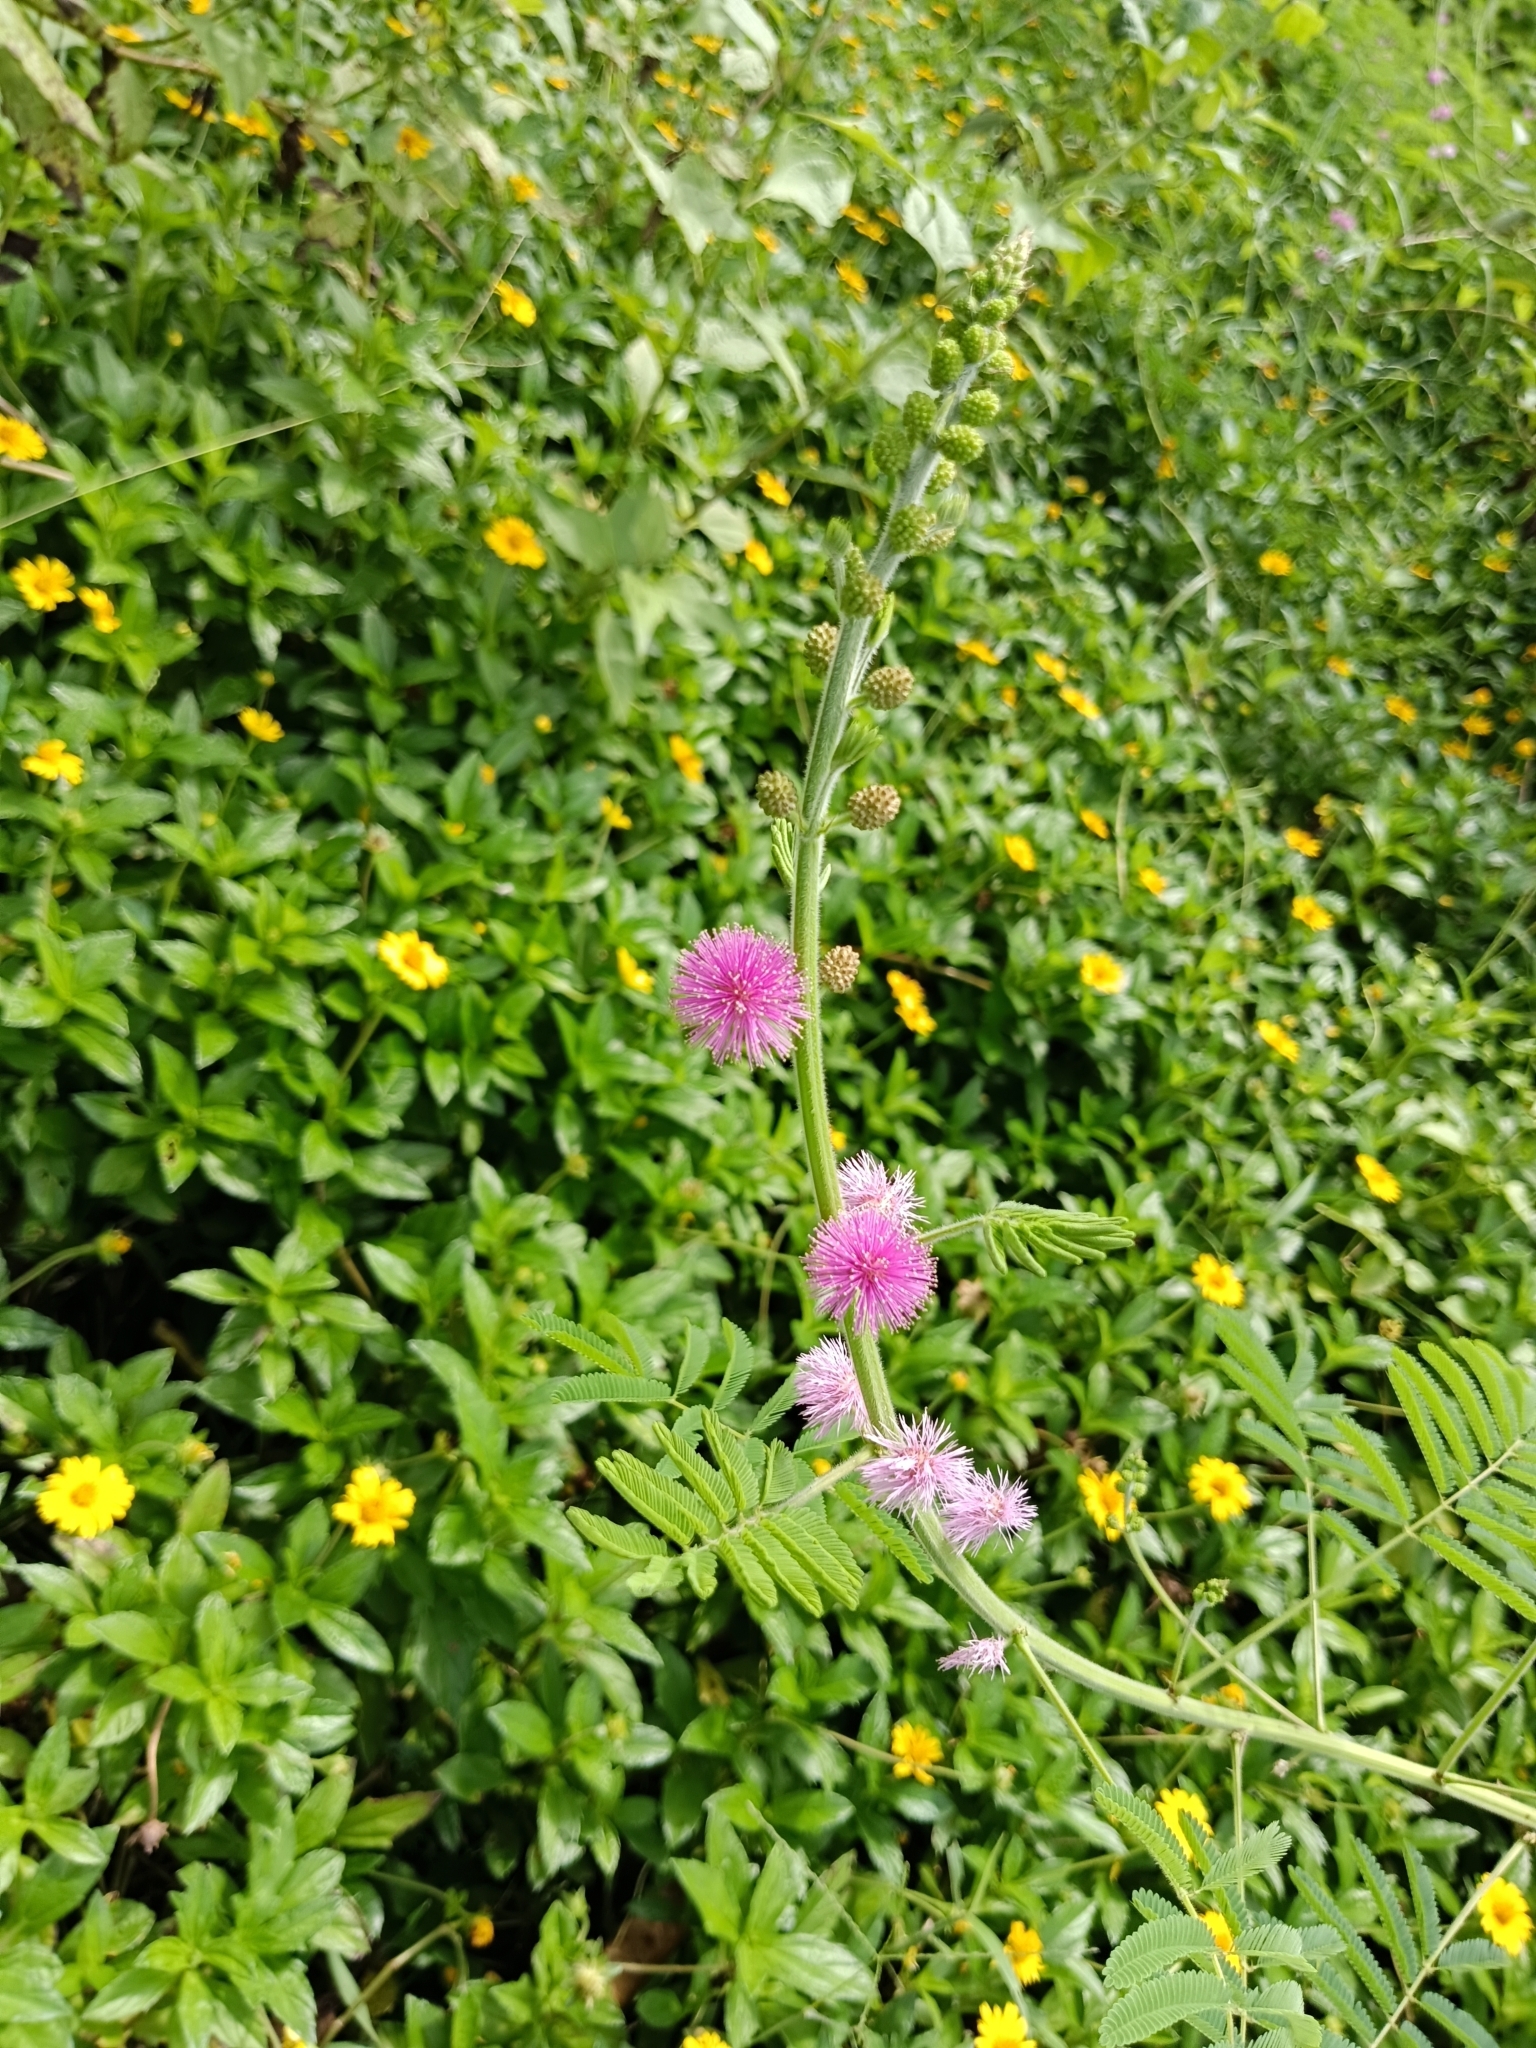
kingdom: Plantae
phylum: Tracheophyta
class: Magnoliopsida
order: Fabales
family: Fabaceae
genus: Mimosa
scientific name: Mimosa diplotricha
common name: Giant sensitive-plant
